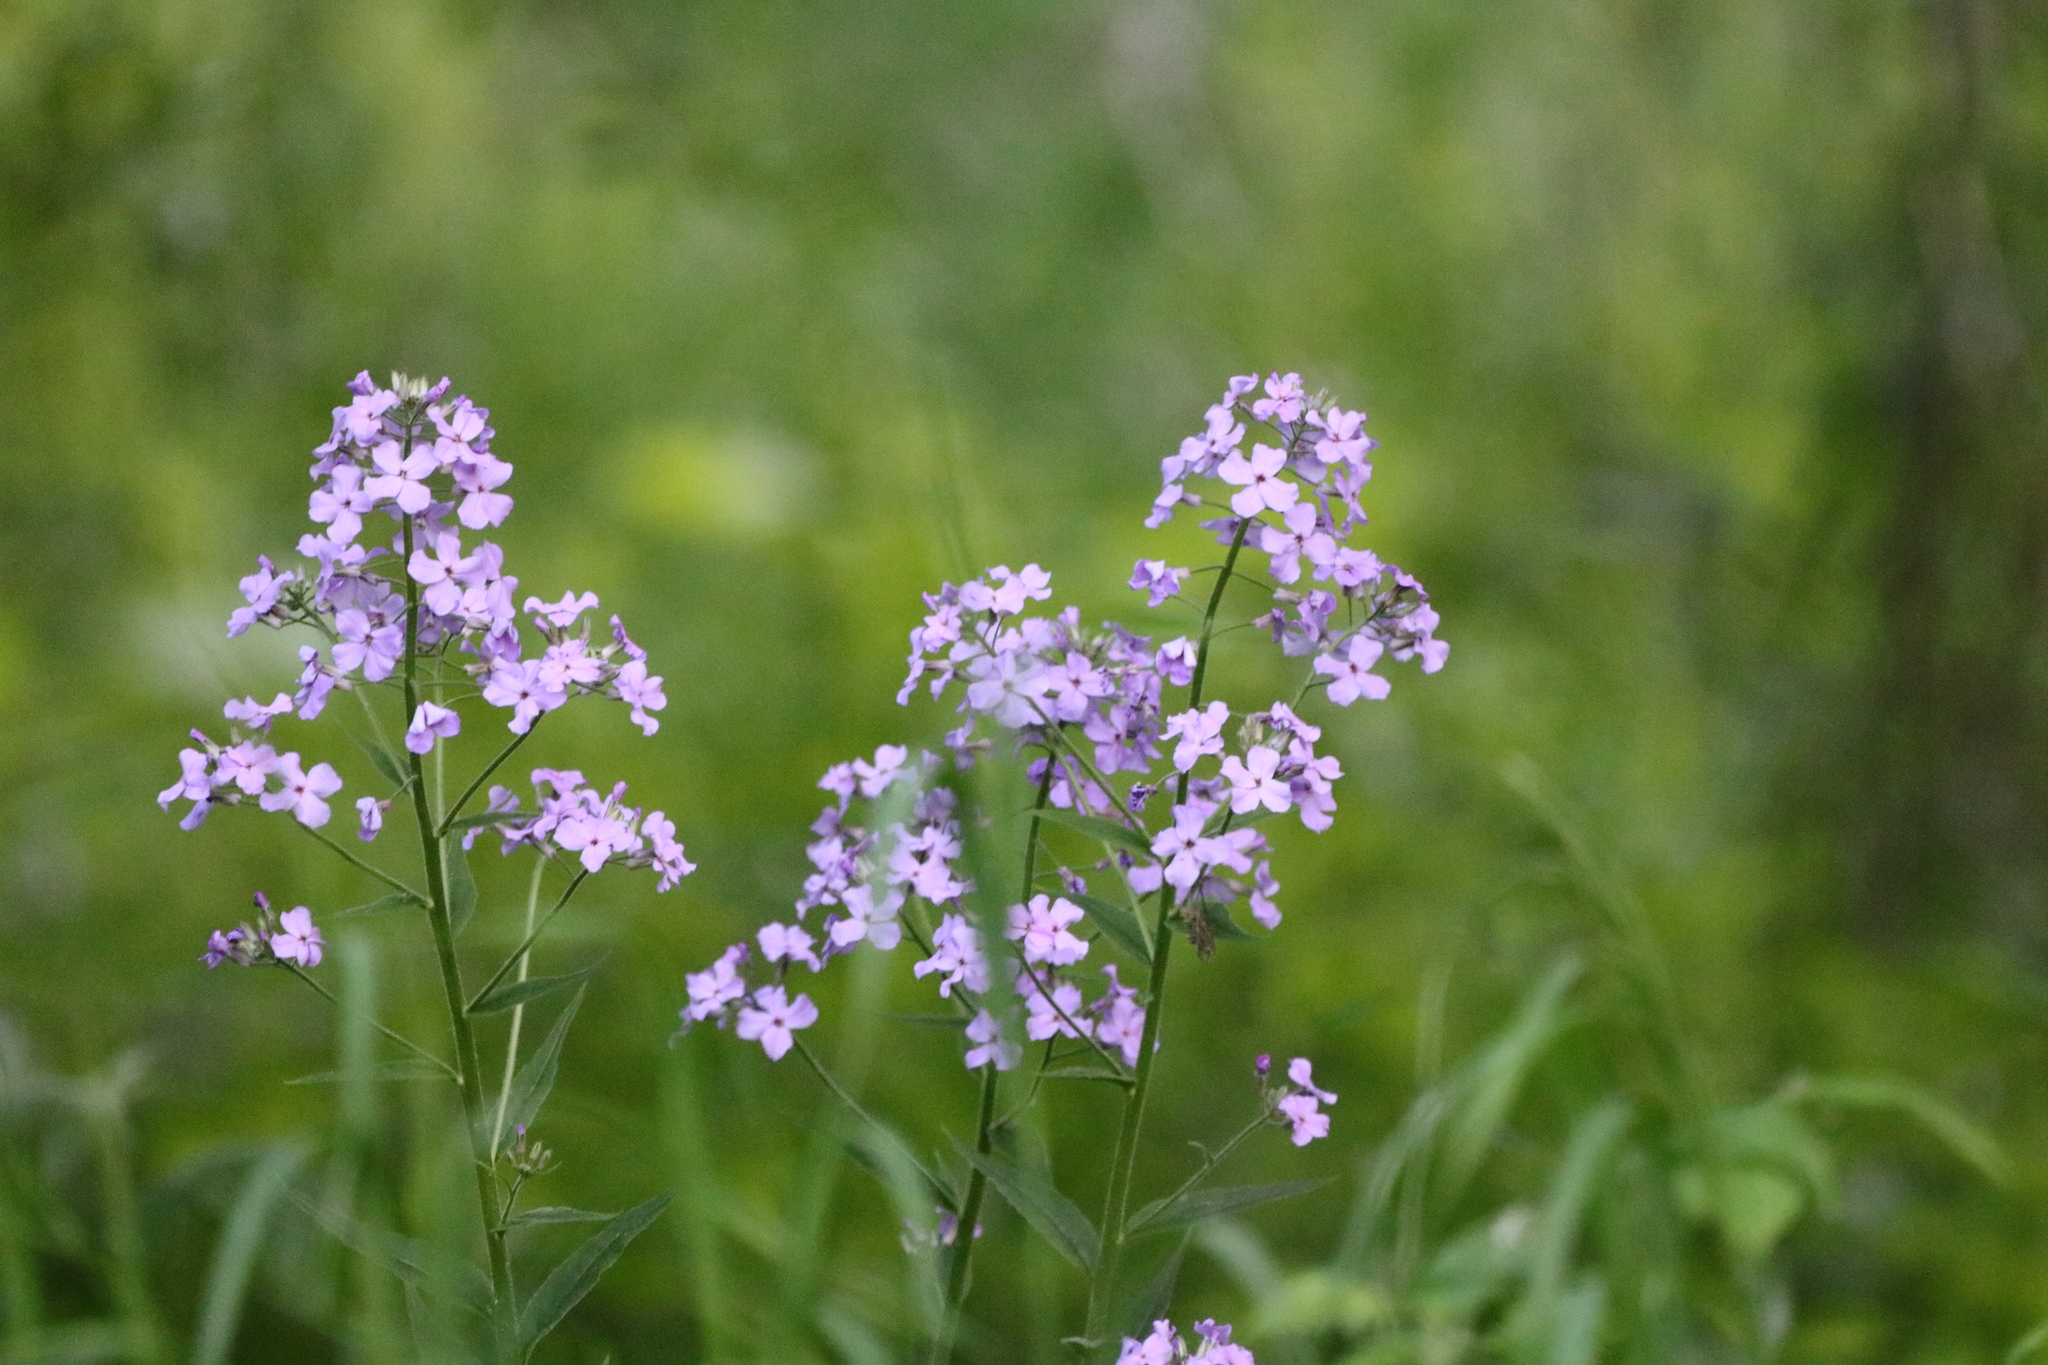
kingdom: Plantae
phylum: Tracheophyta
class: Magnoliopsida
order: Brassicales
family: Brassicaceae
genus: Hesperis
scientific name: Hesperis matronalis
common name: Dame's-violet
